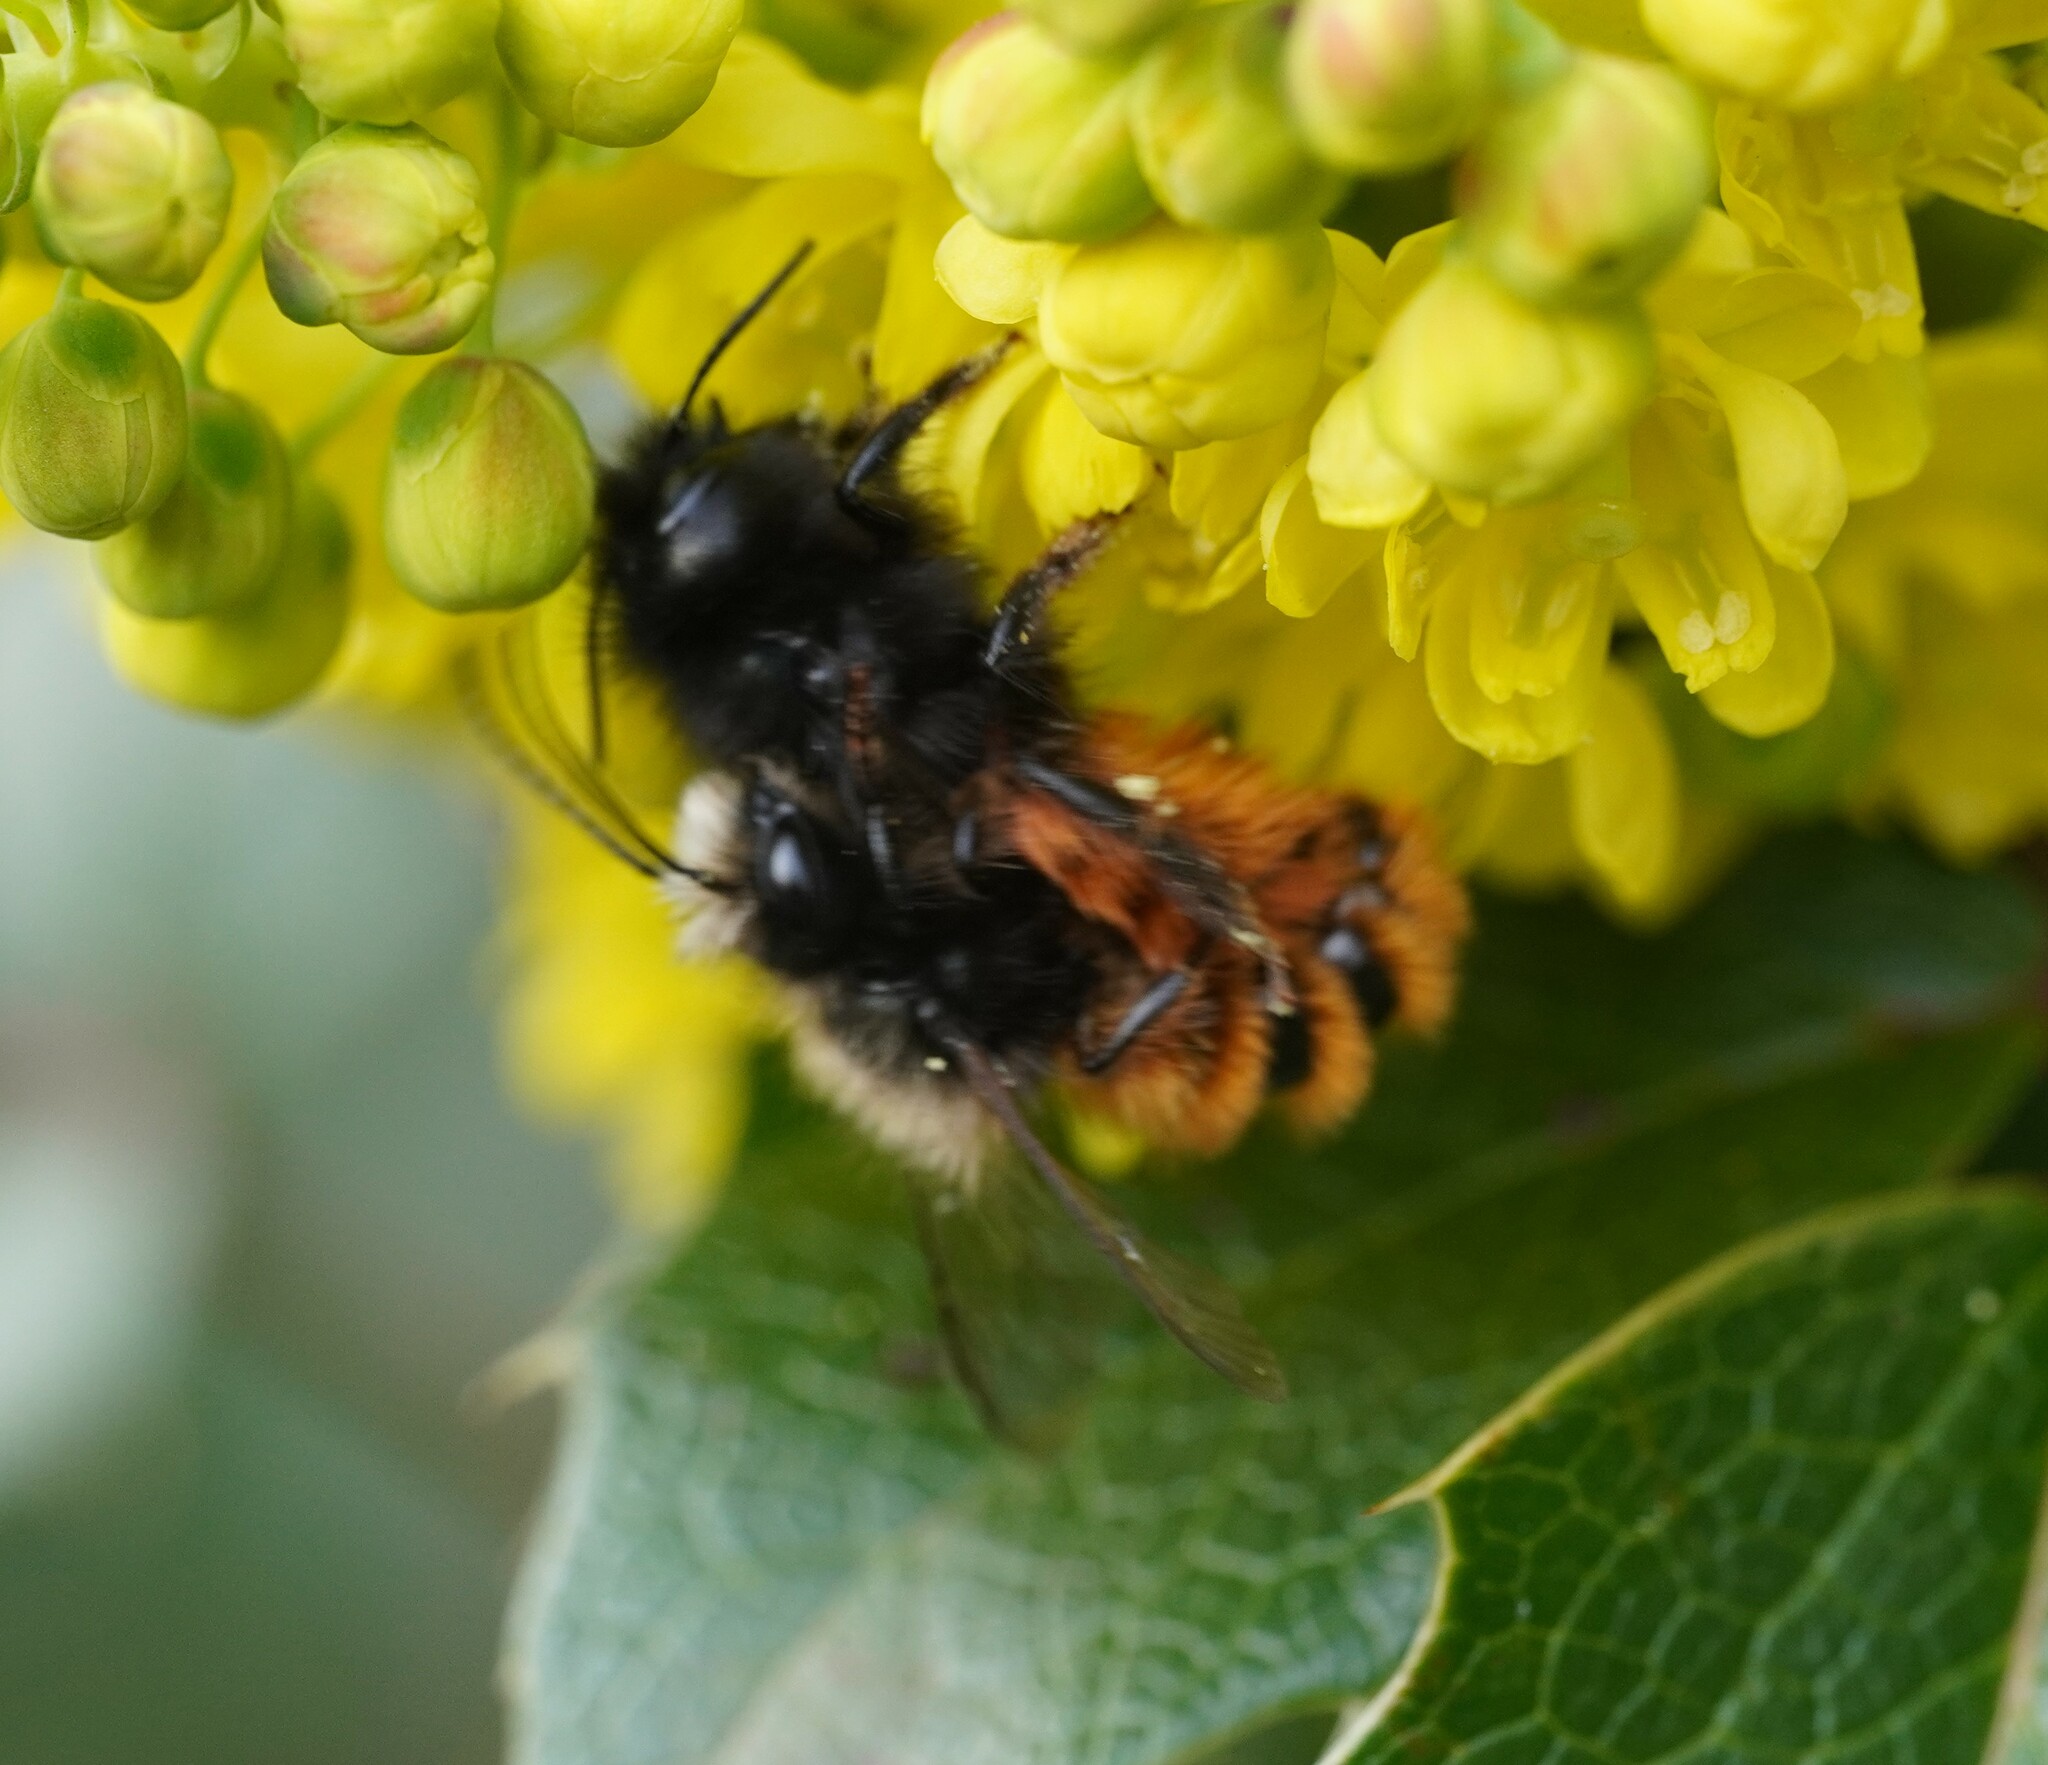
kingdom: Animalia
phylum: Arthropoda
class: Insecta
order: Hymenoptera
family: Megachilidae
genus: Osmia
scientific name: Osmia cornuta
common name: Mason bee
